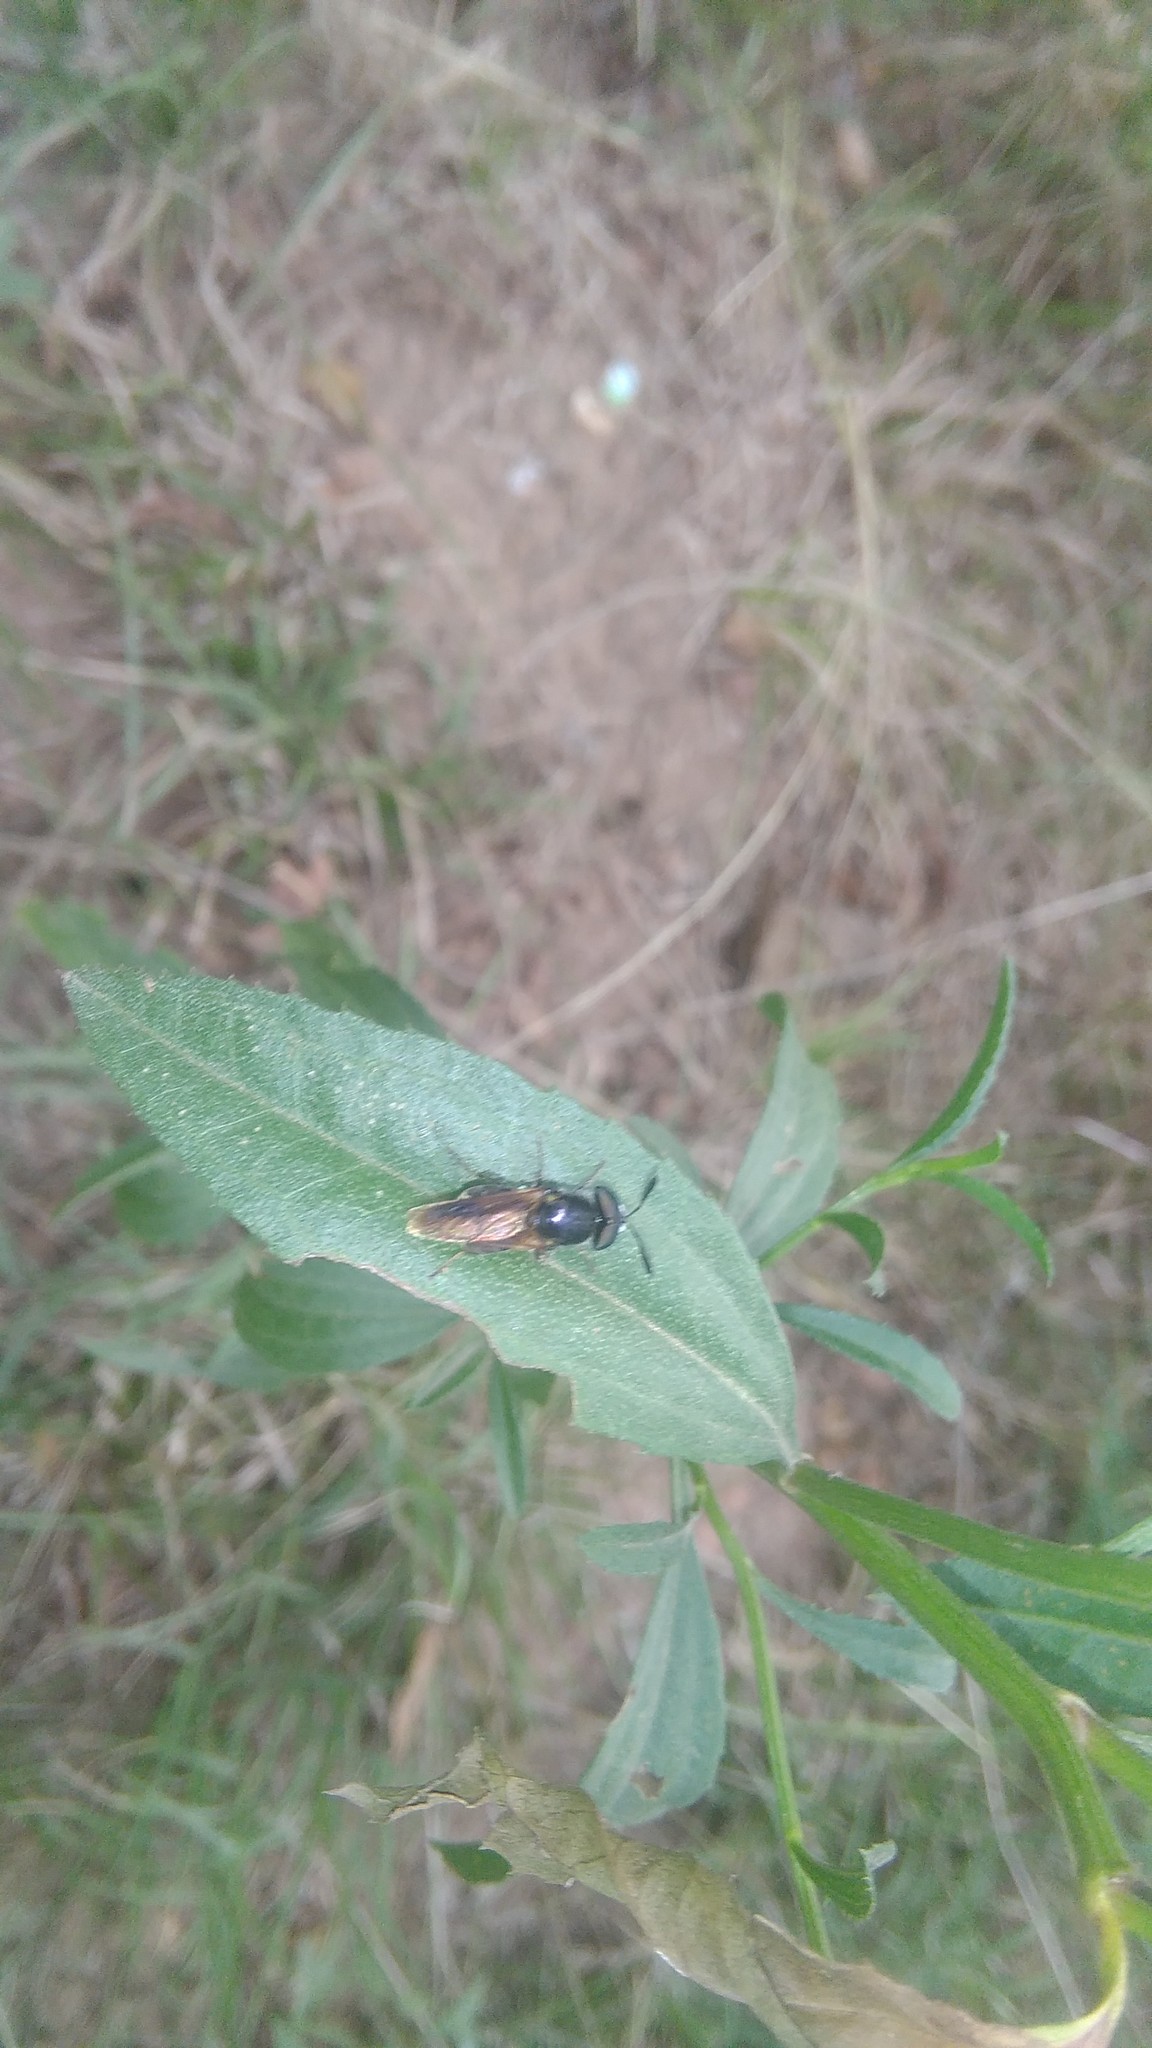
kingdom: Animalia
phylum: Arthropoda
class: Insecta
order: Diptera
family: Stratiomyidae
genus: Hoplitimyia
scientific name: Hoplitimyia
